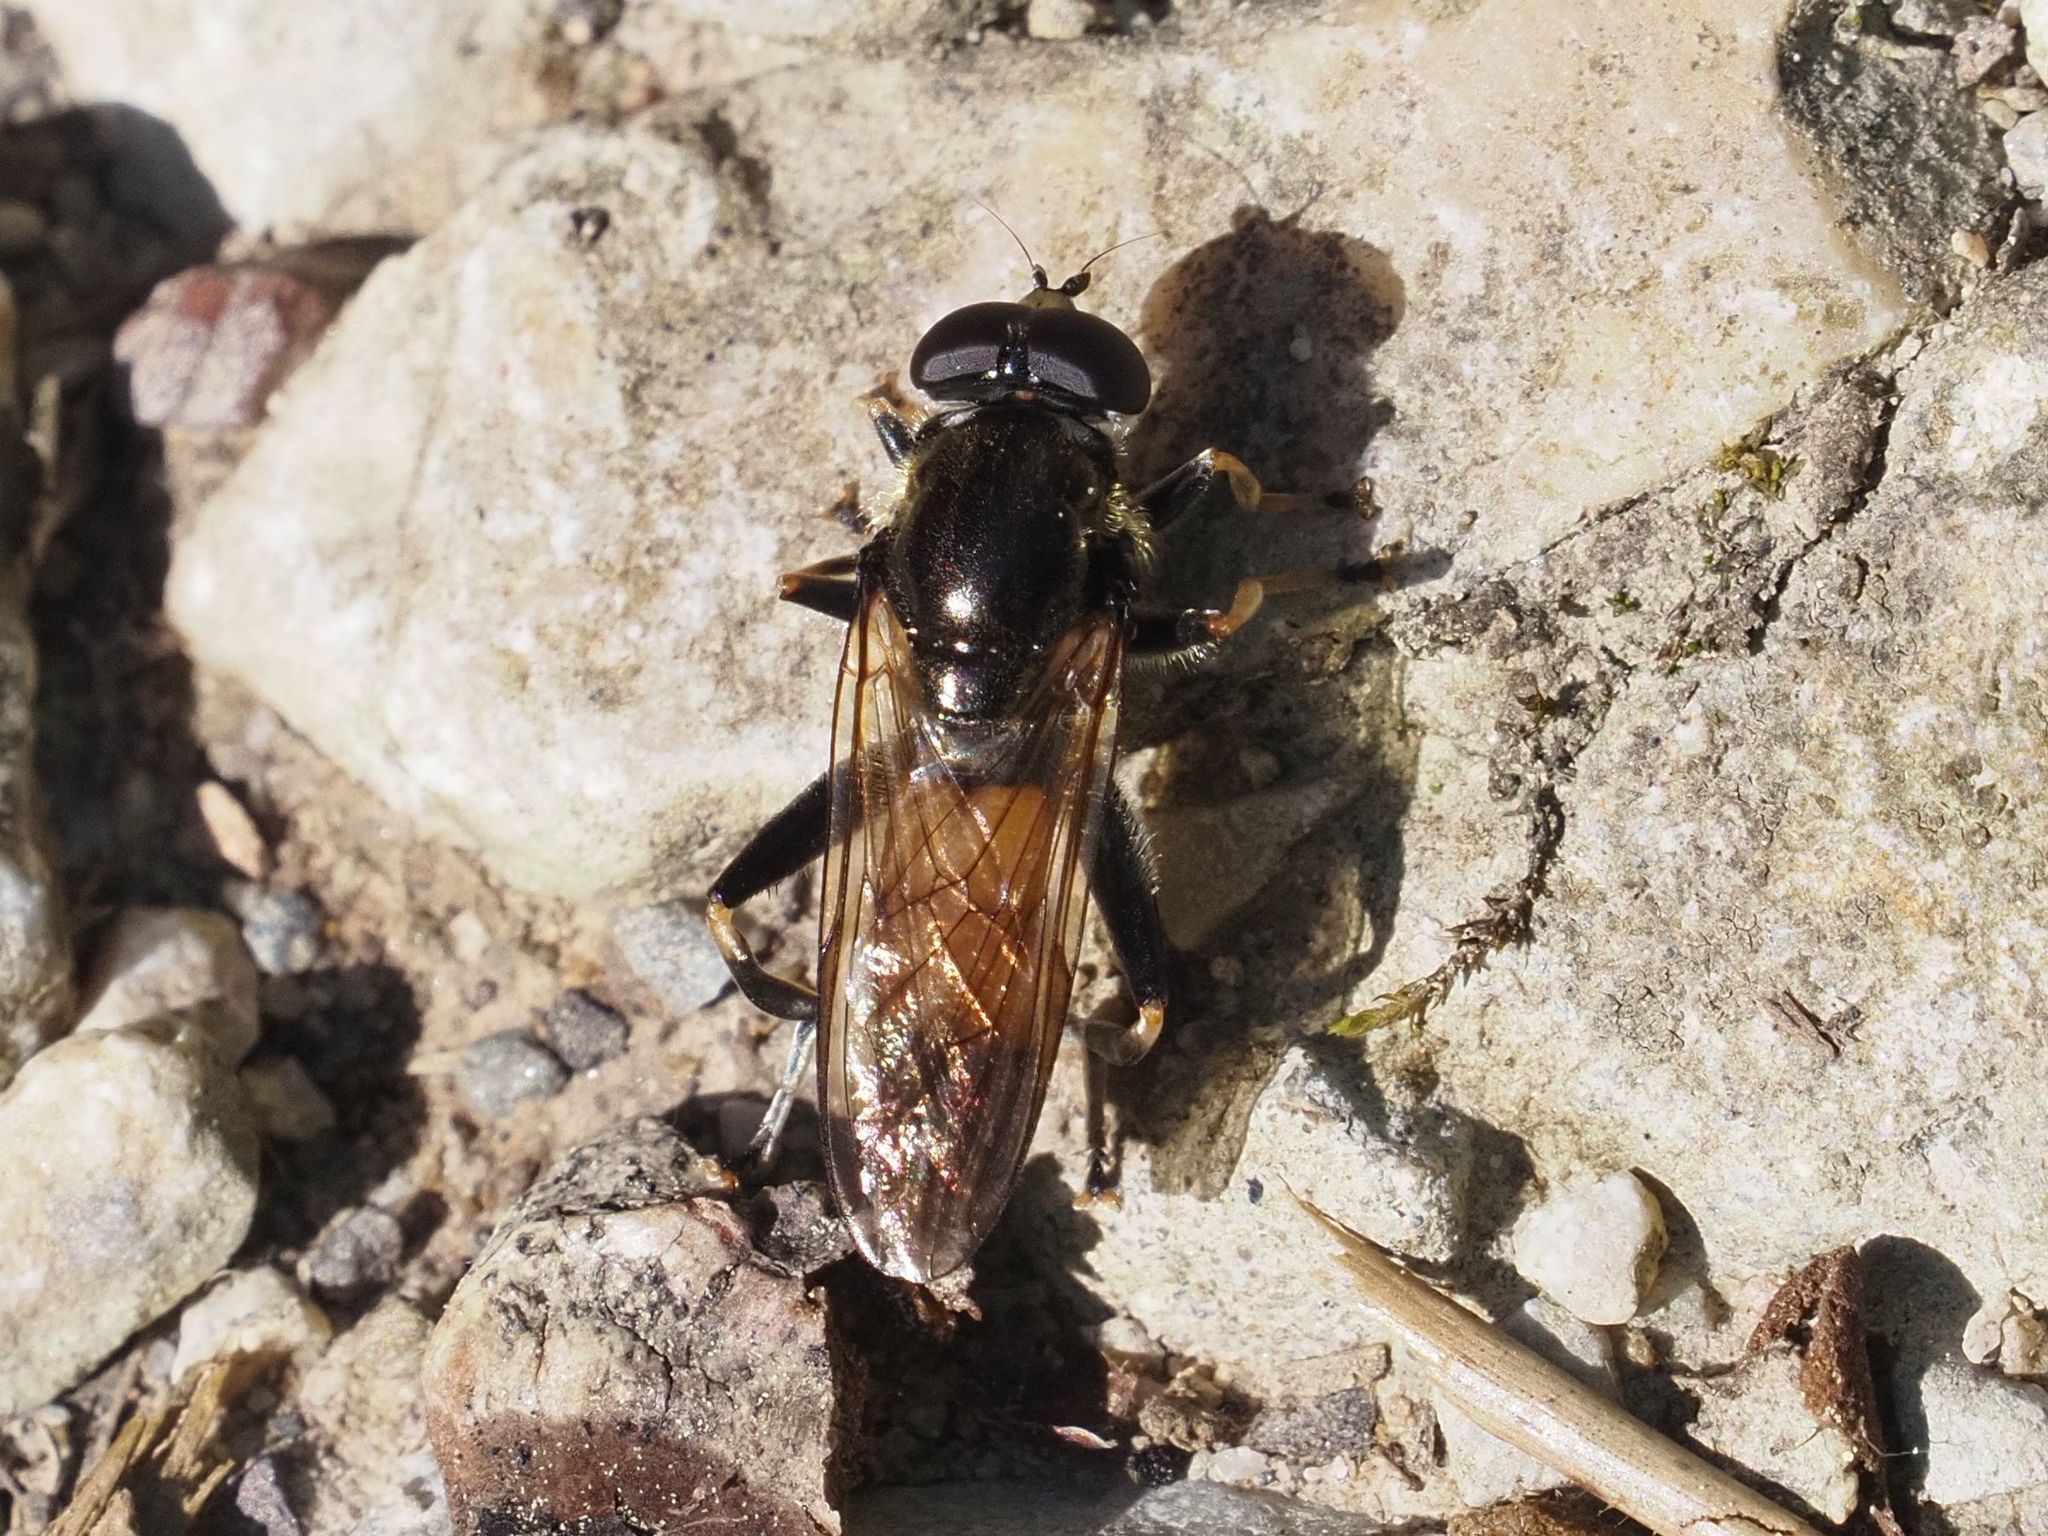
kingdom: Animalia
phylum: Arthropoda
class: Insecta
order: Diptera
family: Syrphidae
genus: Xylota
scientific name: Xylota segnis
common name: Brown-toed forest fly
